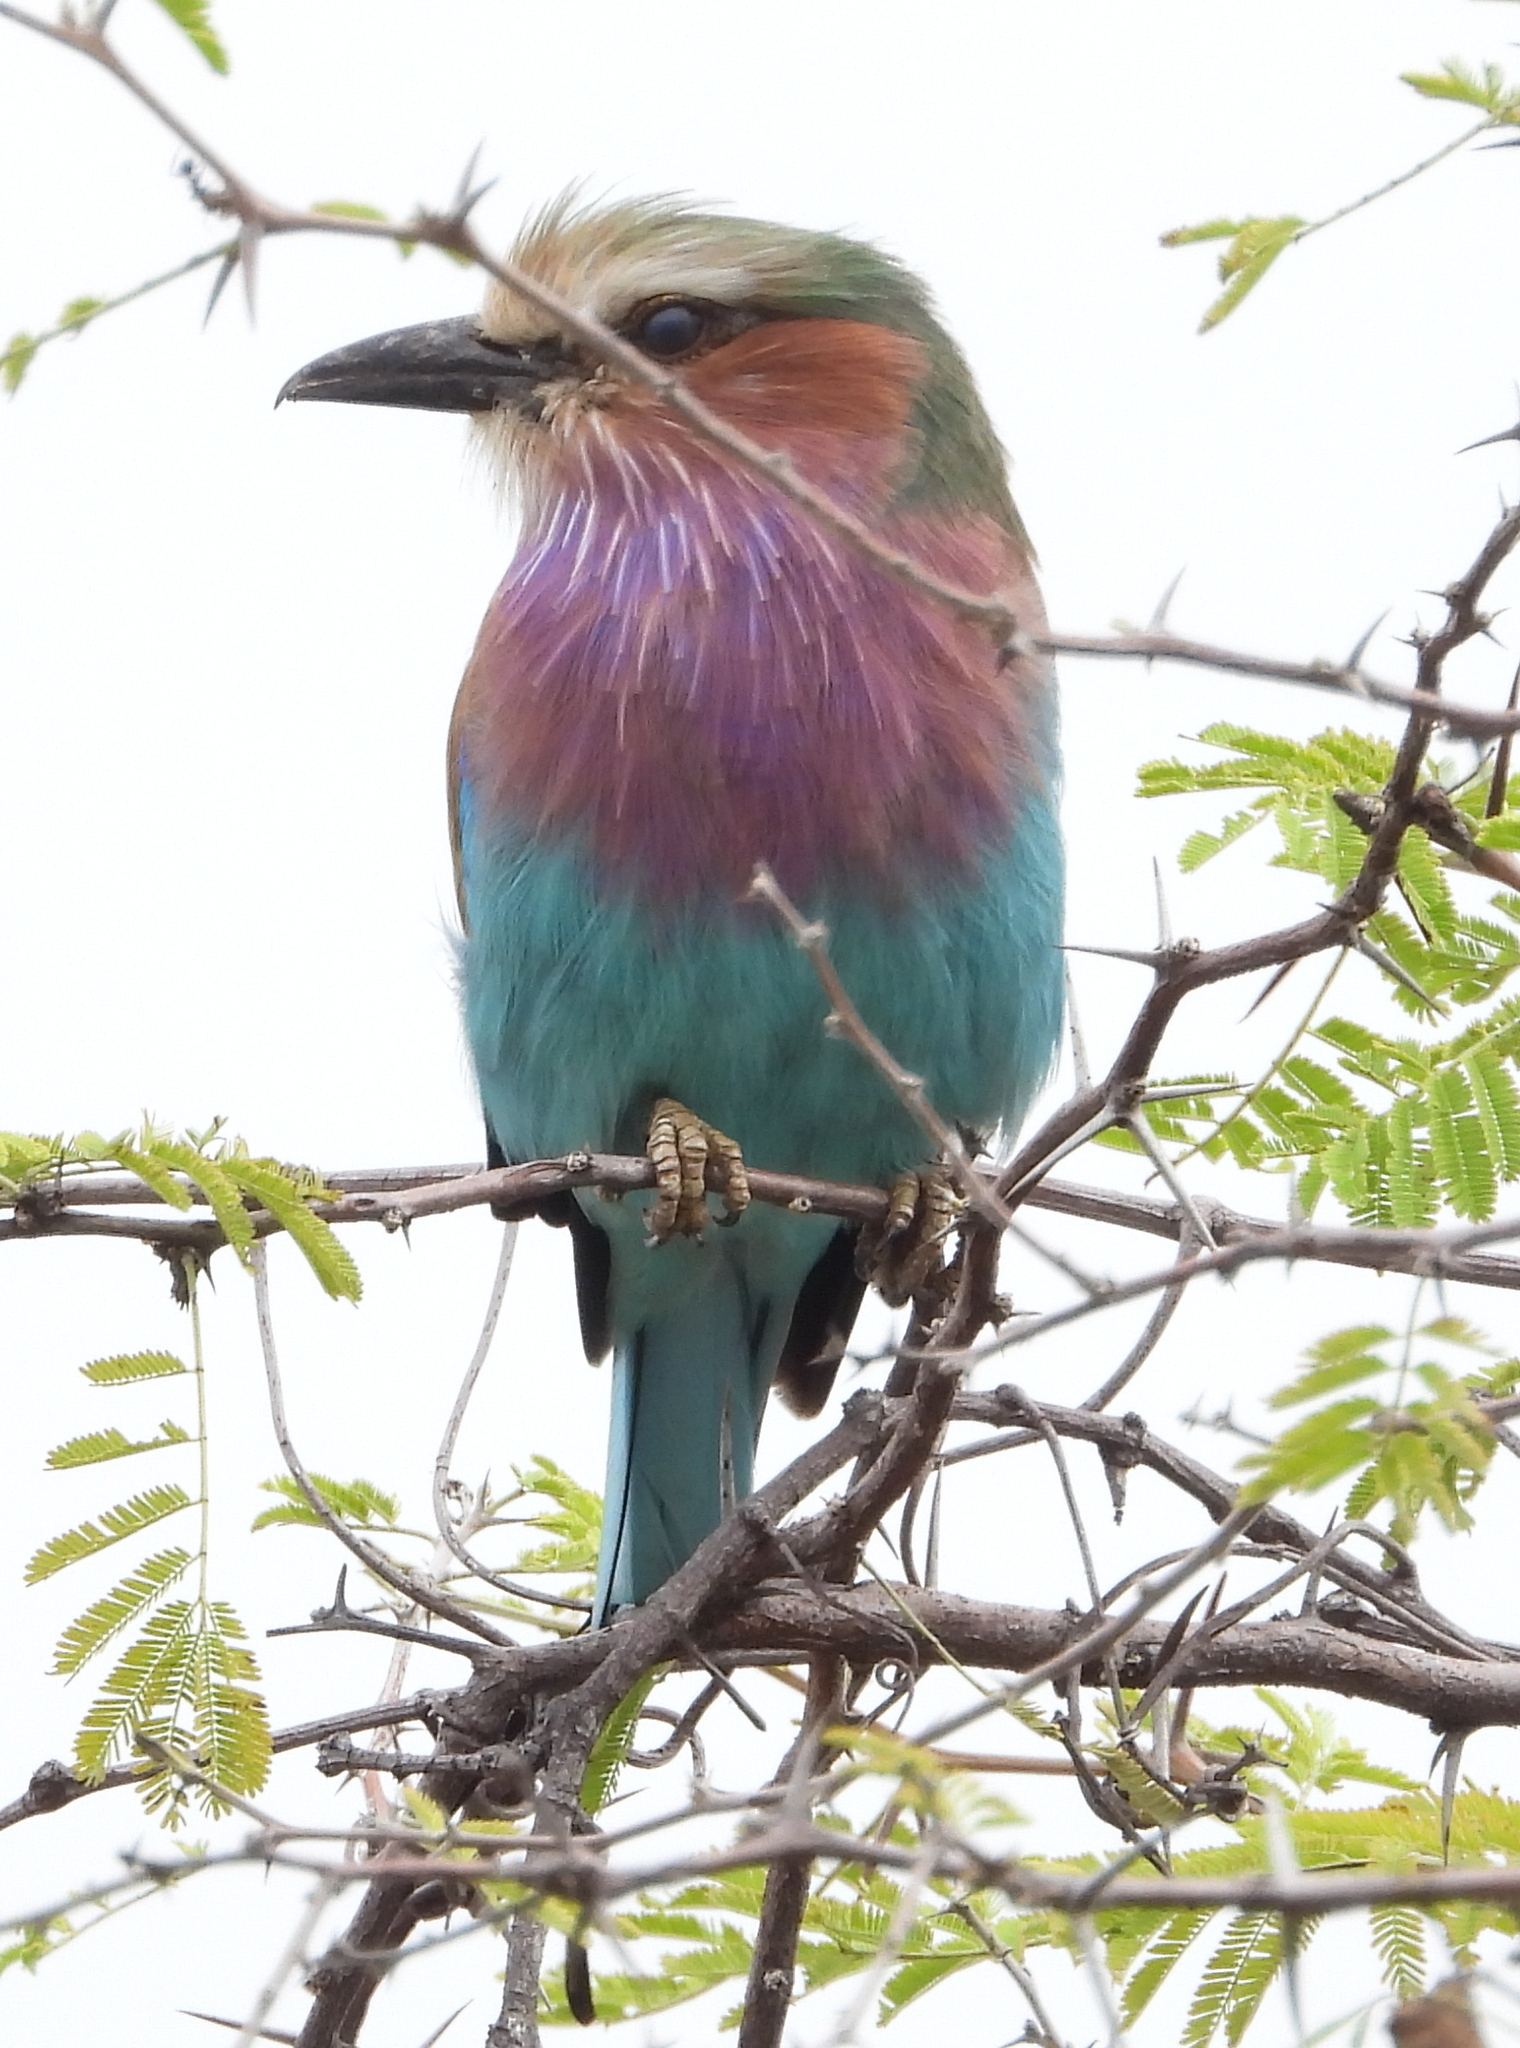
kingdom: Animalia
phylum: Chordata
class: Aves
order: Coraciiformes
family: Coraciidae
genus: Coracias
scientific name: Coracias caudatus
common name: Lilac-breasted roller
